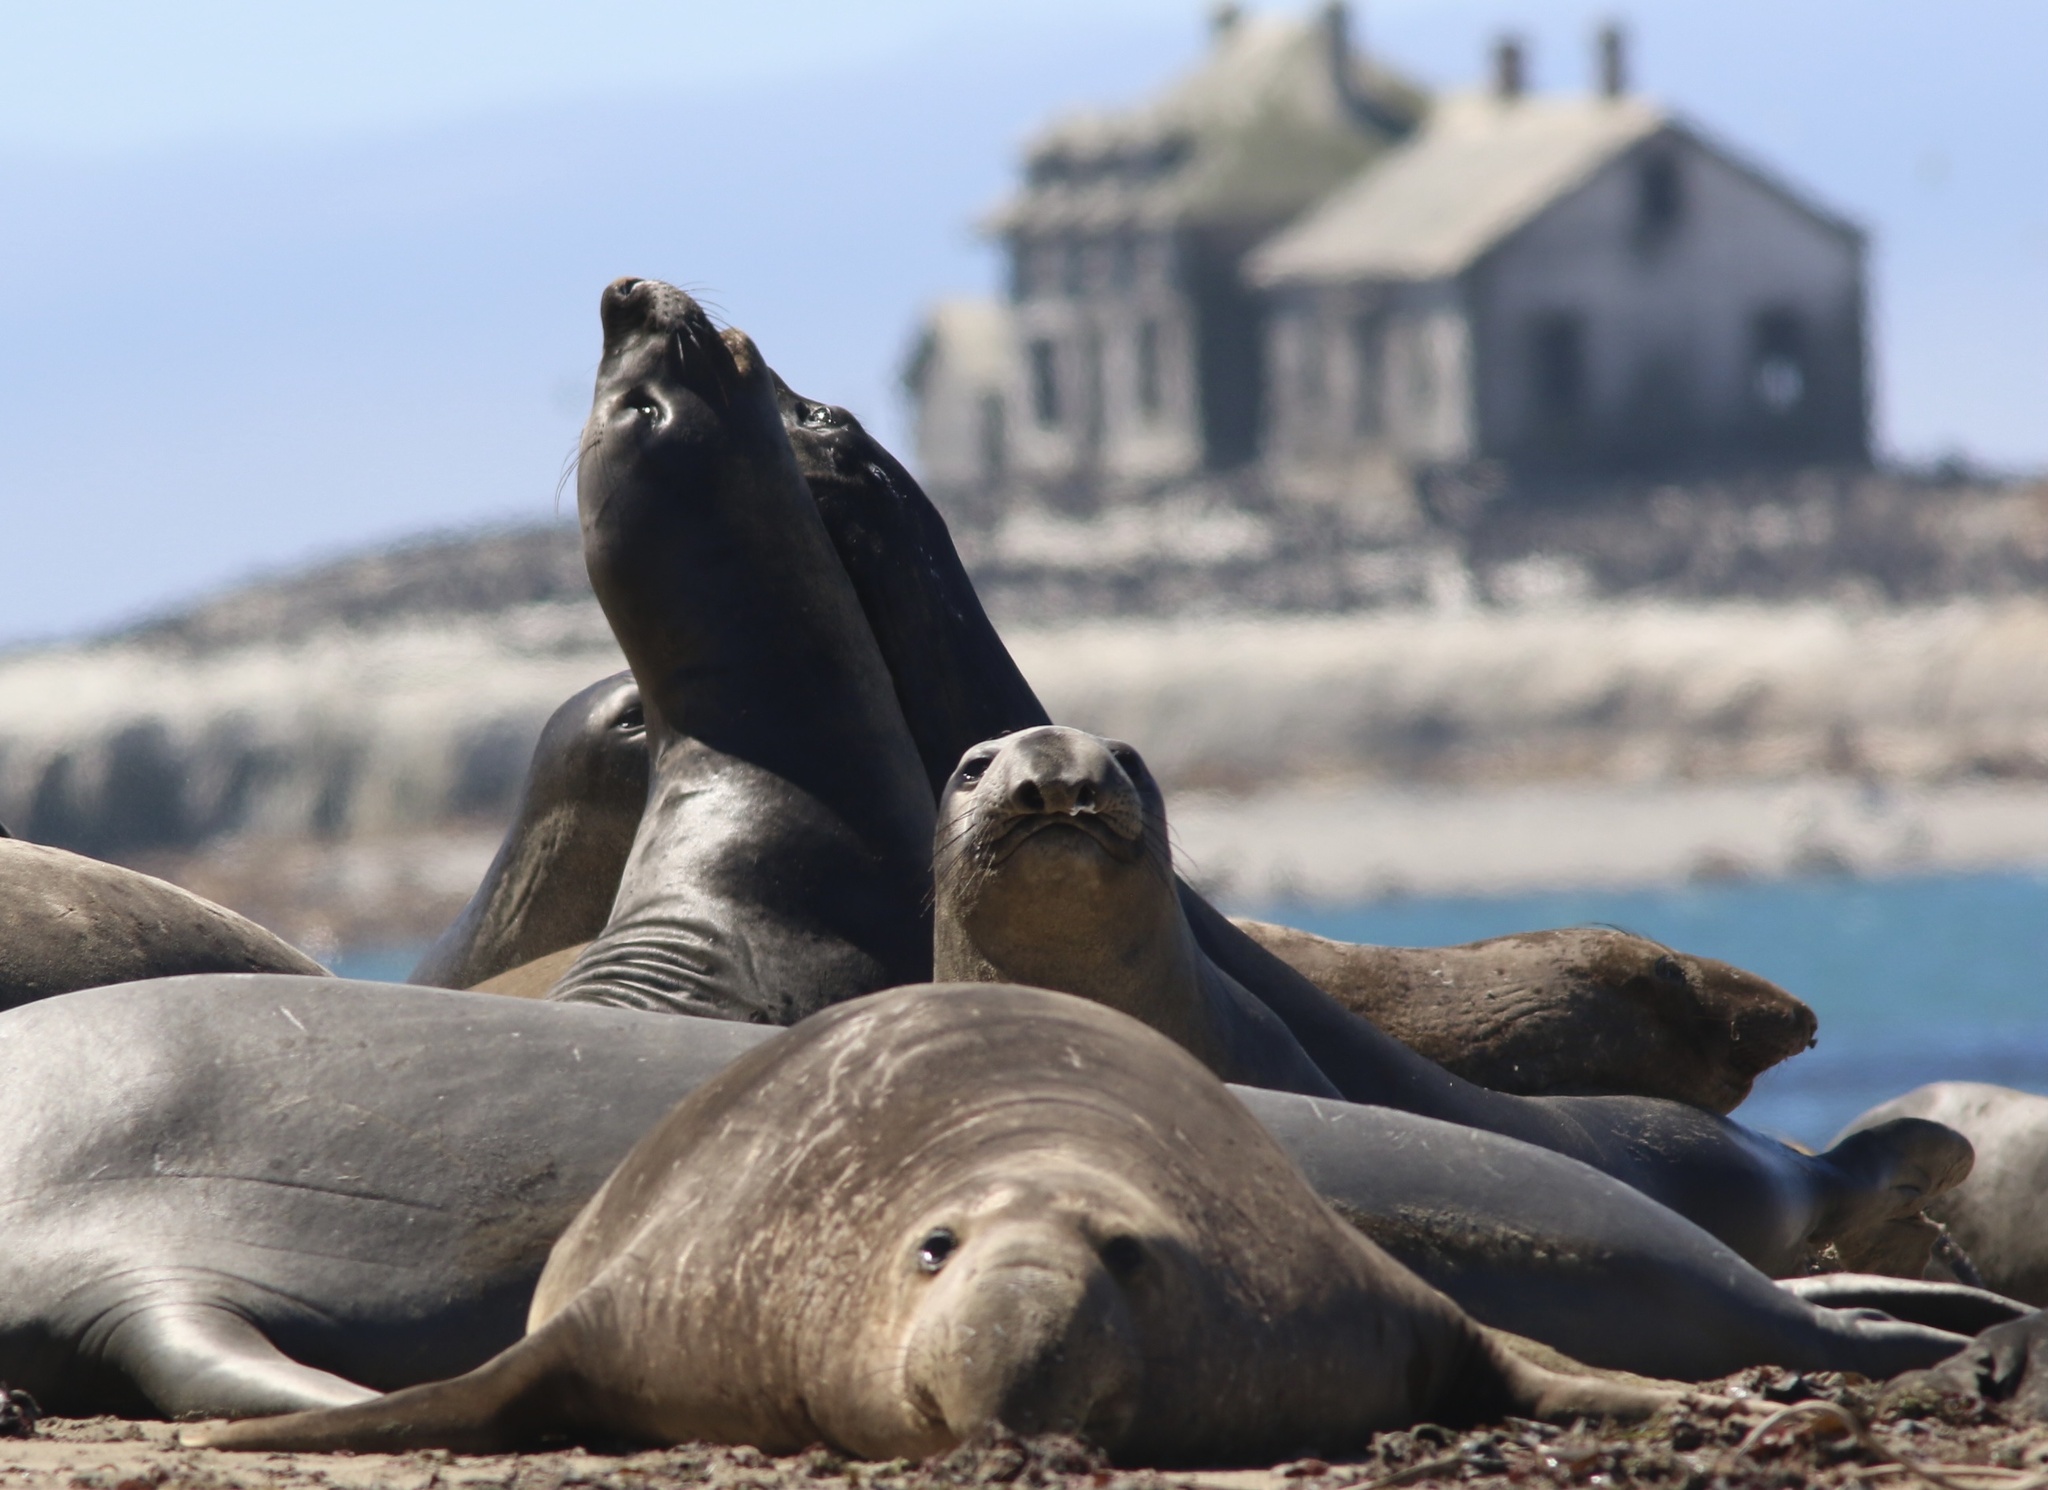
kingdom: Animalia
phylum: Chordata
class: Mammalia
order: Carnivora
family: Phocidae
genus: Mirounga
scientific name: Mirounga angustirostris
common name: Northern elephant seal
